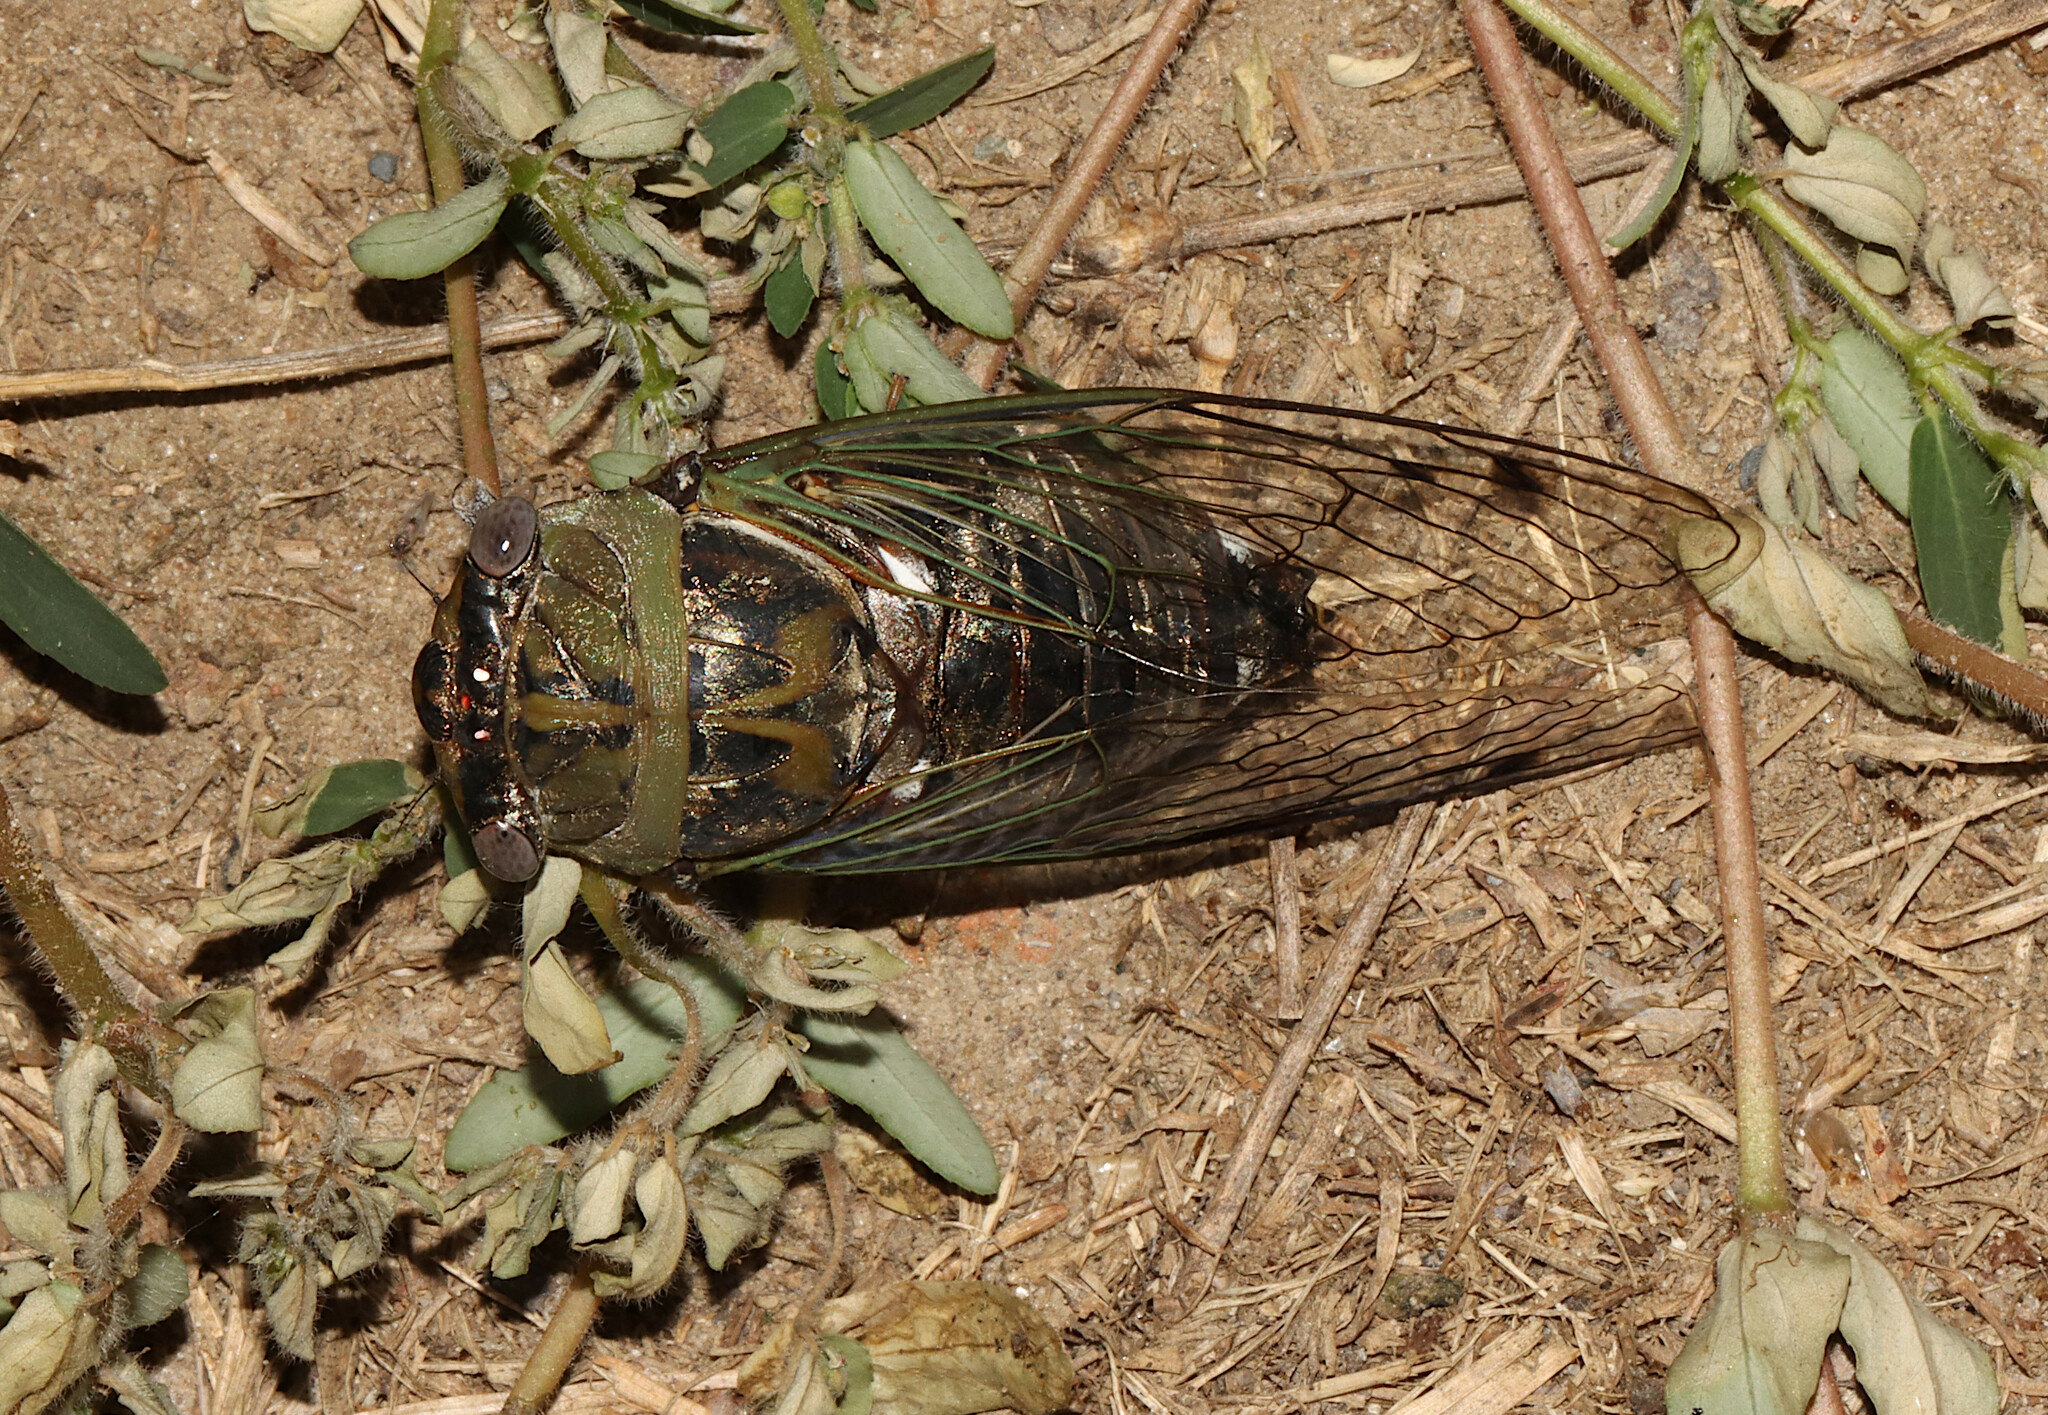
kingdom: Animalia
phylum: Arthropoda
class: Insecta
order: Hemiptera
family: Cicadidae
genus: Megatibicen
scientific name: Megatibicen resh
